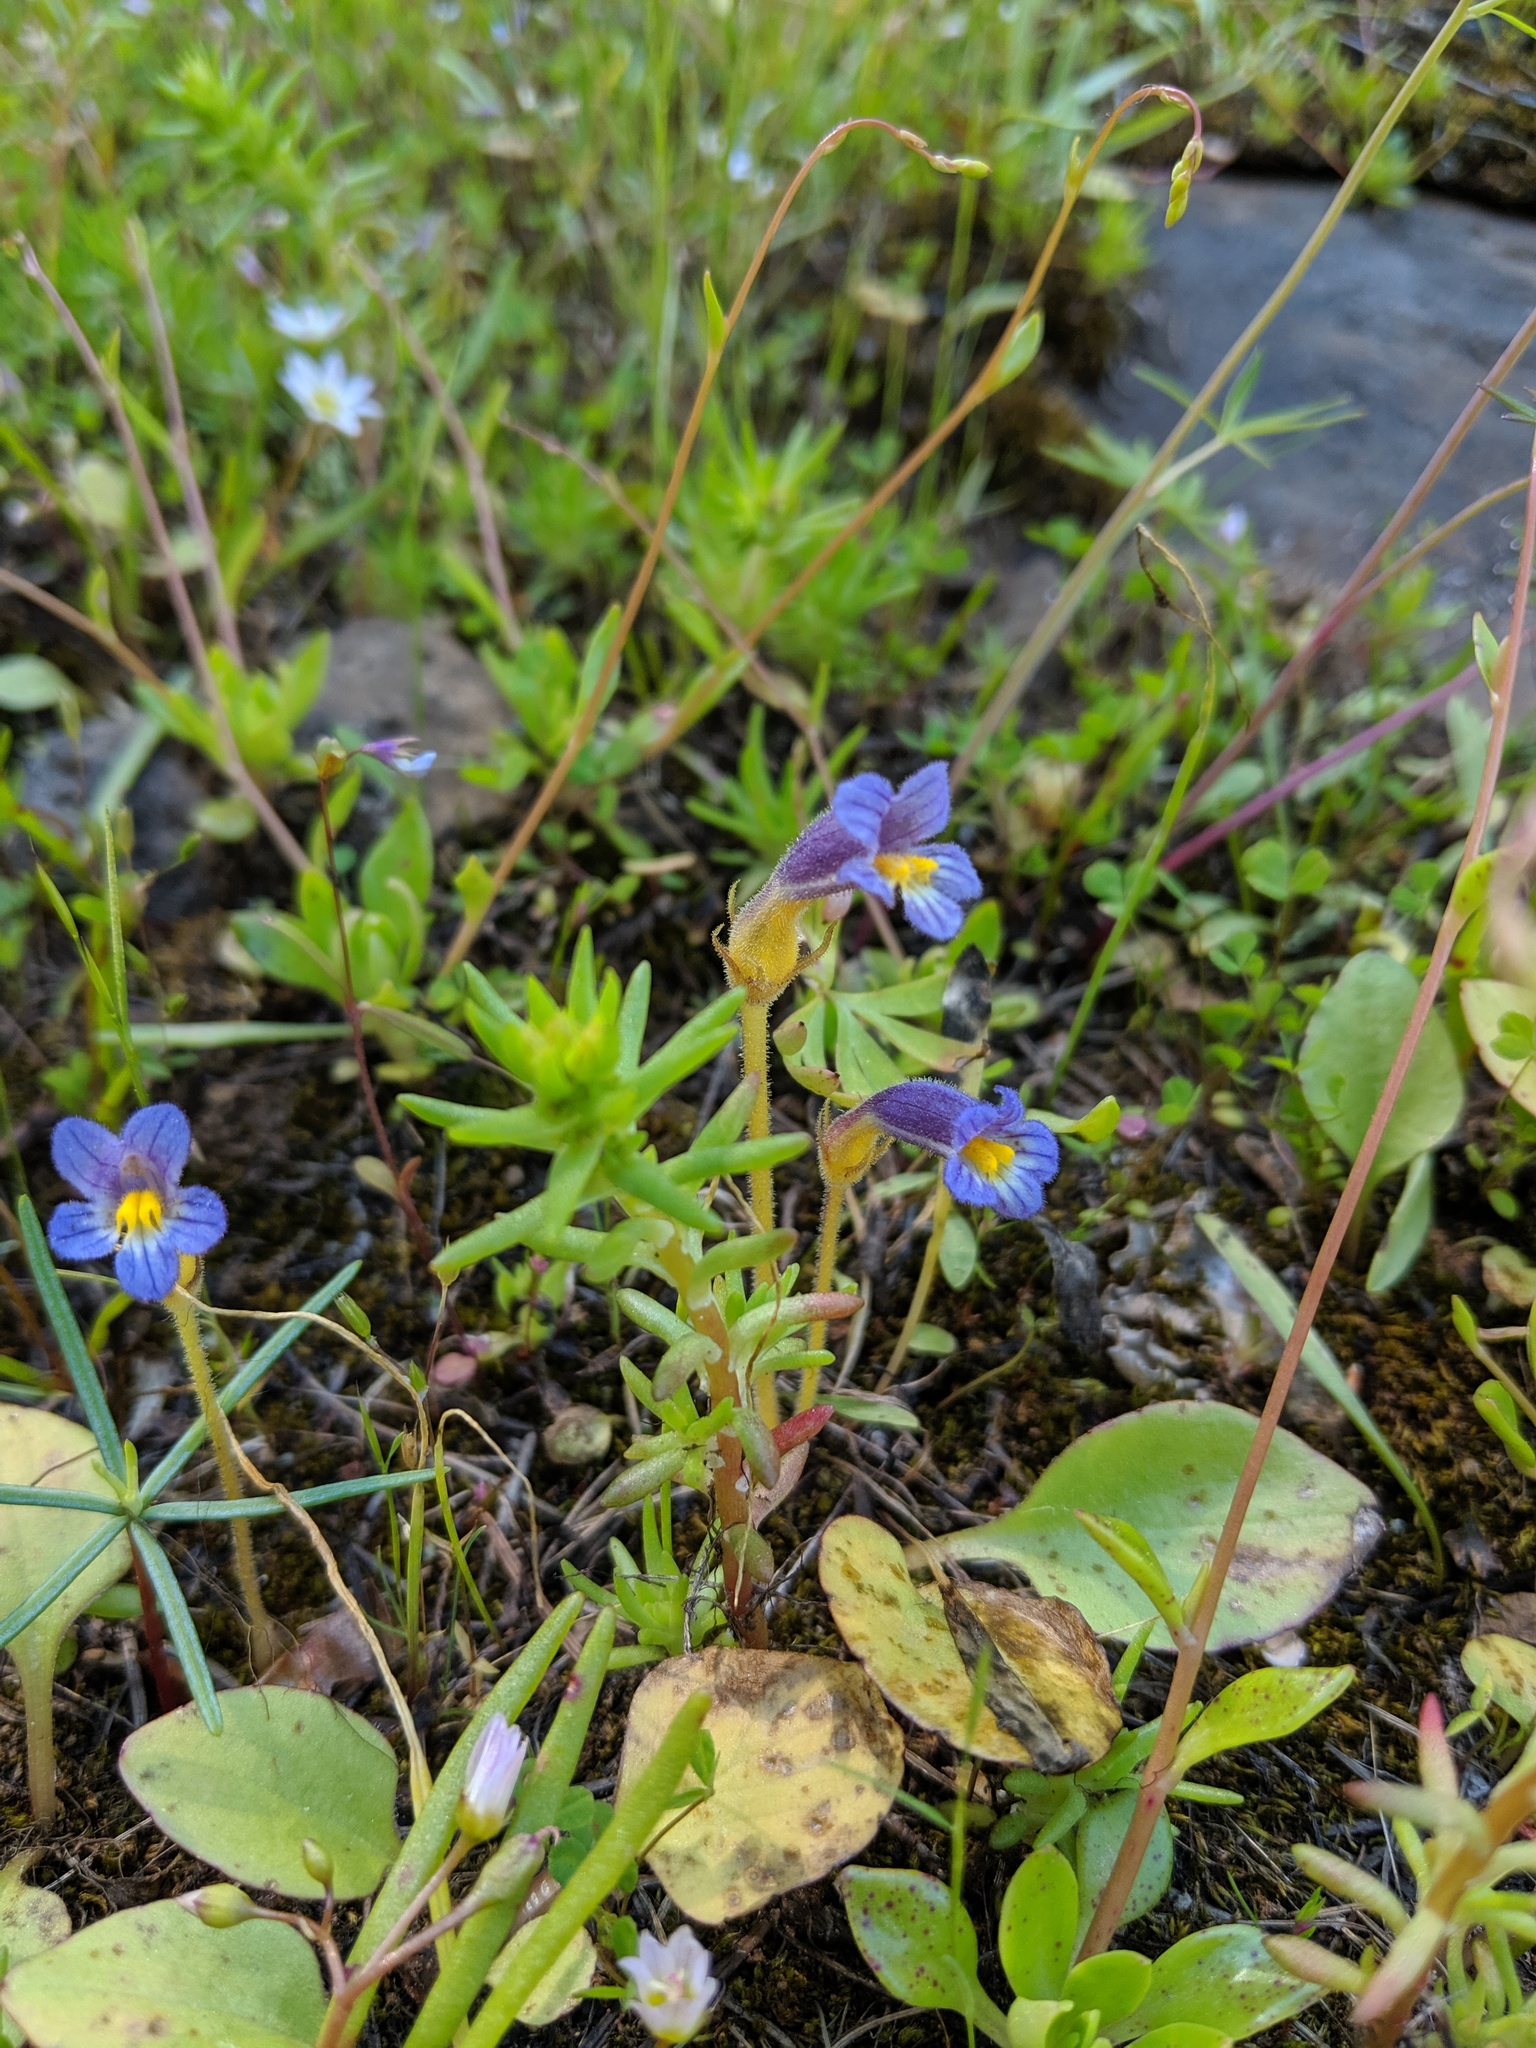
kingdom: Plantae
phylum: Tracheophyta
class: Magnoliopsida
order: Lamiales
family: Orobanchaceae
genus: Aphyllon
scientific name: Aphyllon uniflorum
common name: One-flowered broomrape
